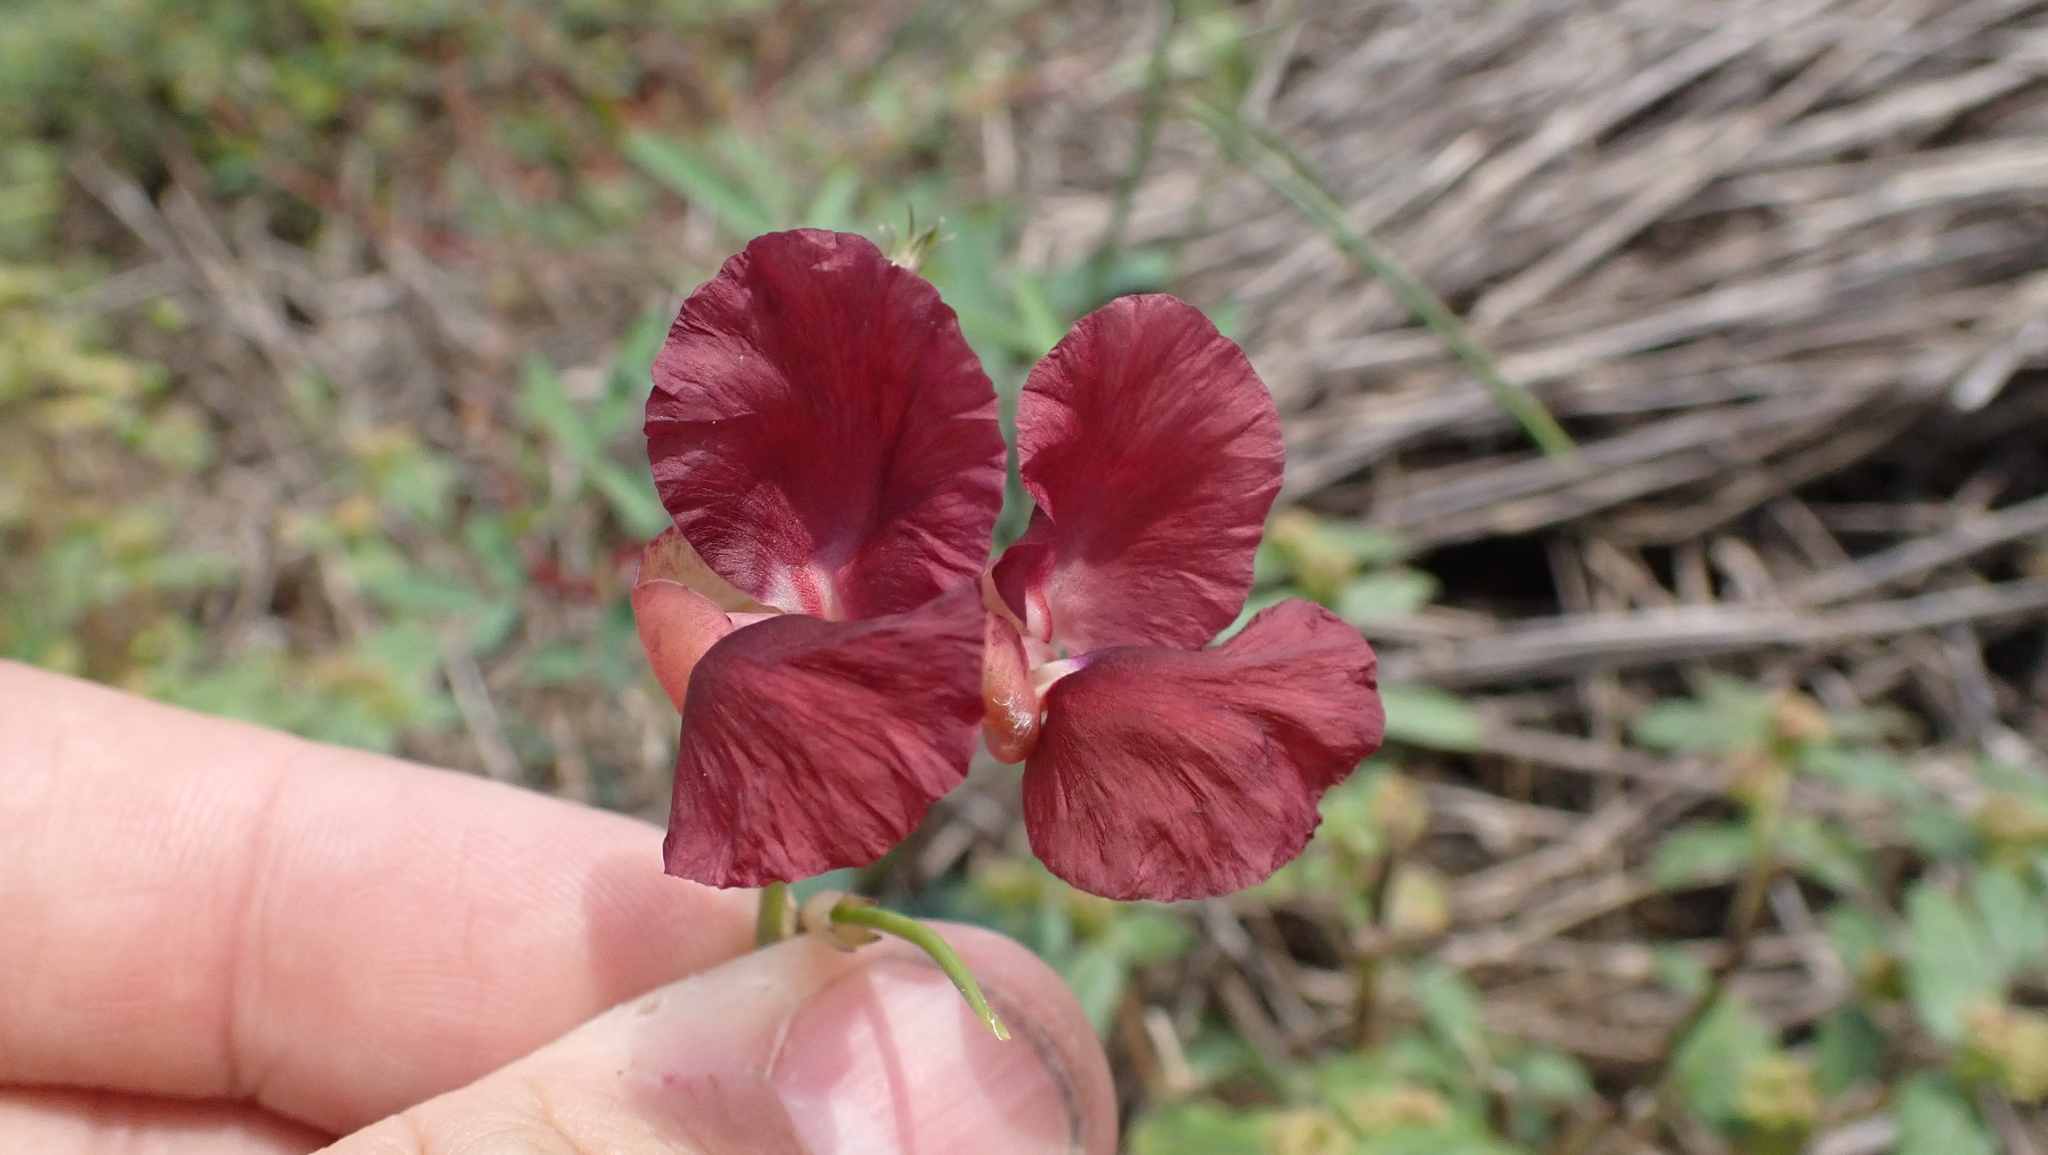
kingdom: Plantae
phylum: Tracheophyta
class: Magnoliopsida
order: Fabales
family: Fabaceae
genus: Macroptilium
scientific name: Macroptilium lathyroides
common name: Wild bushbean
